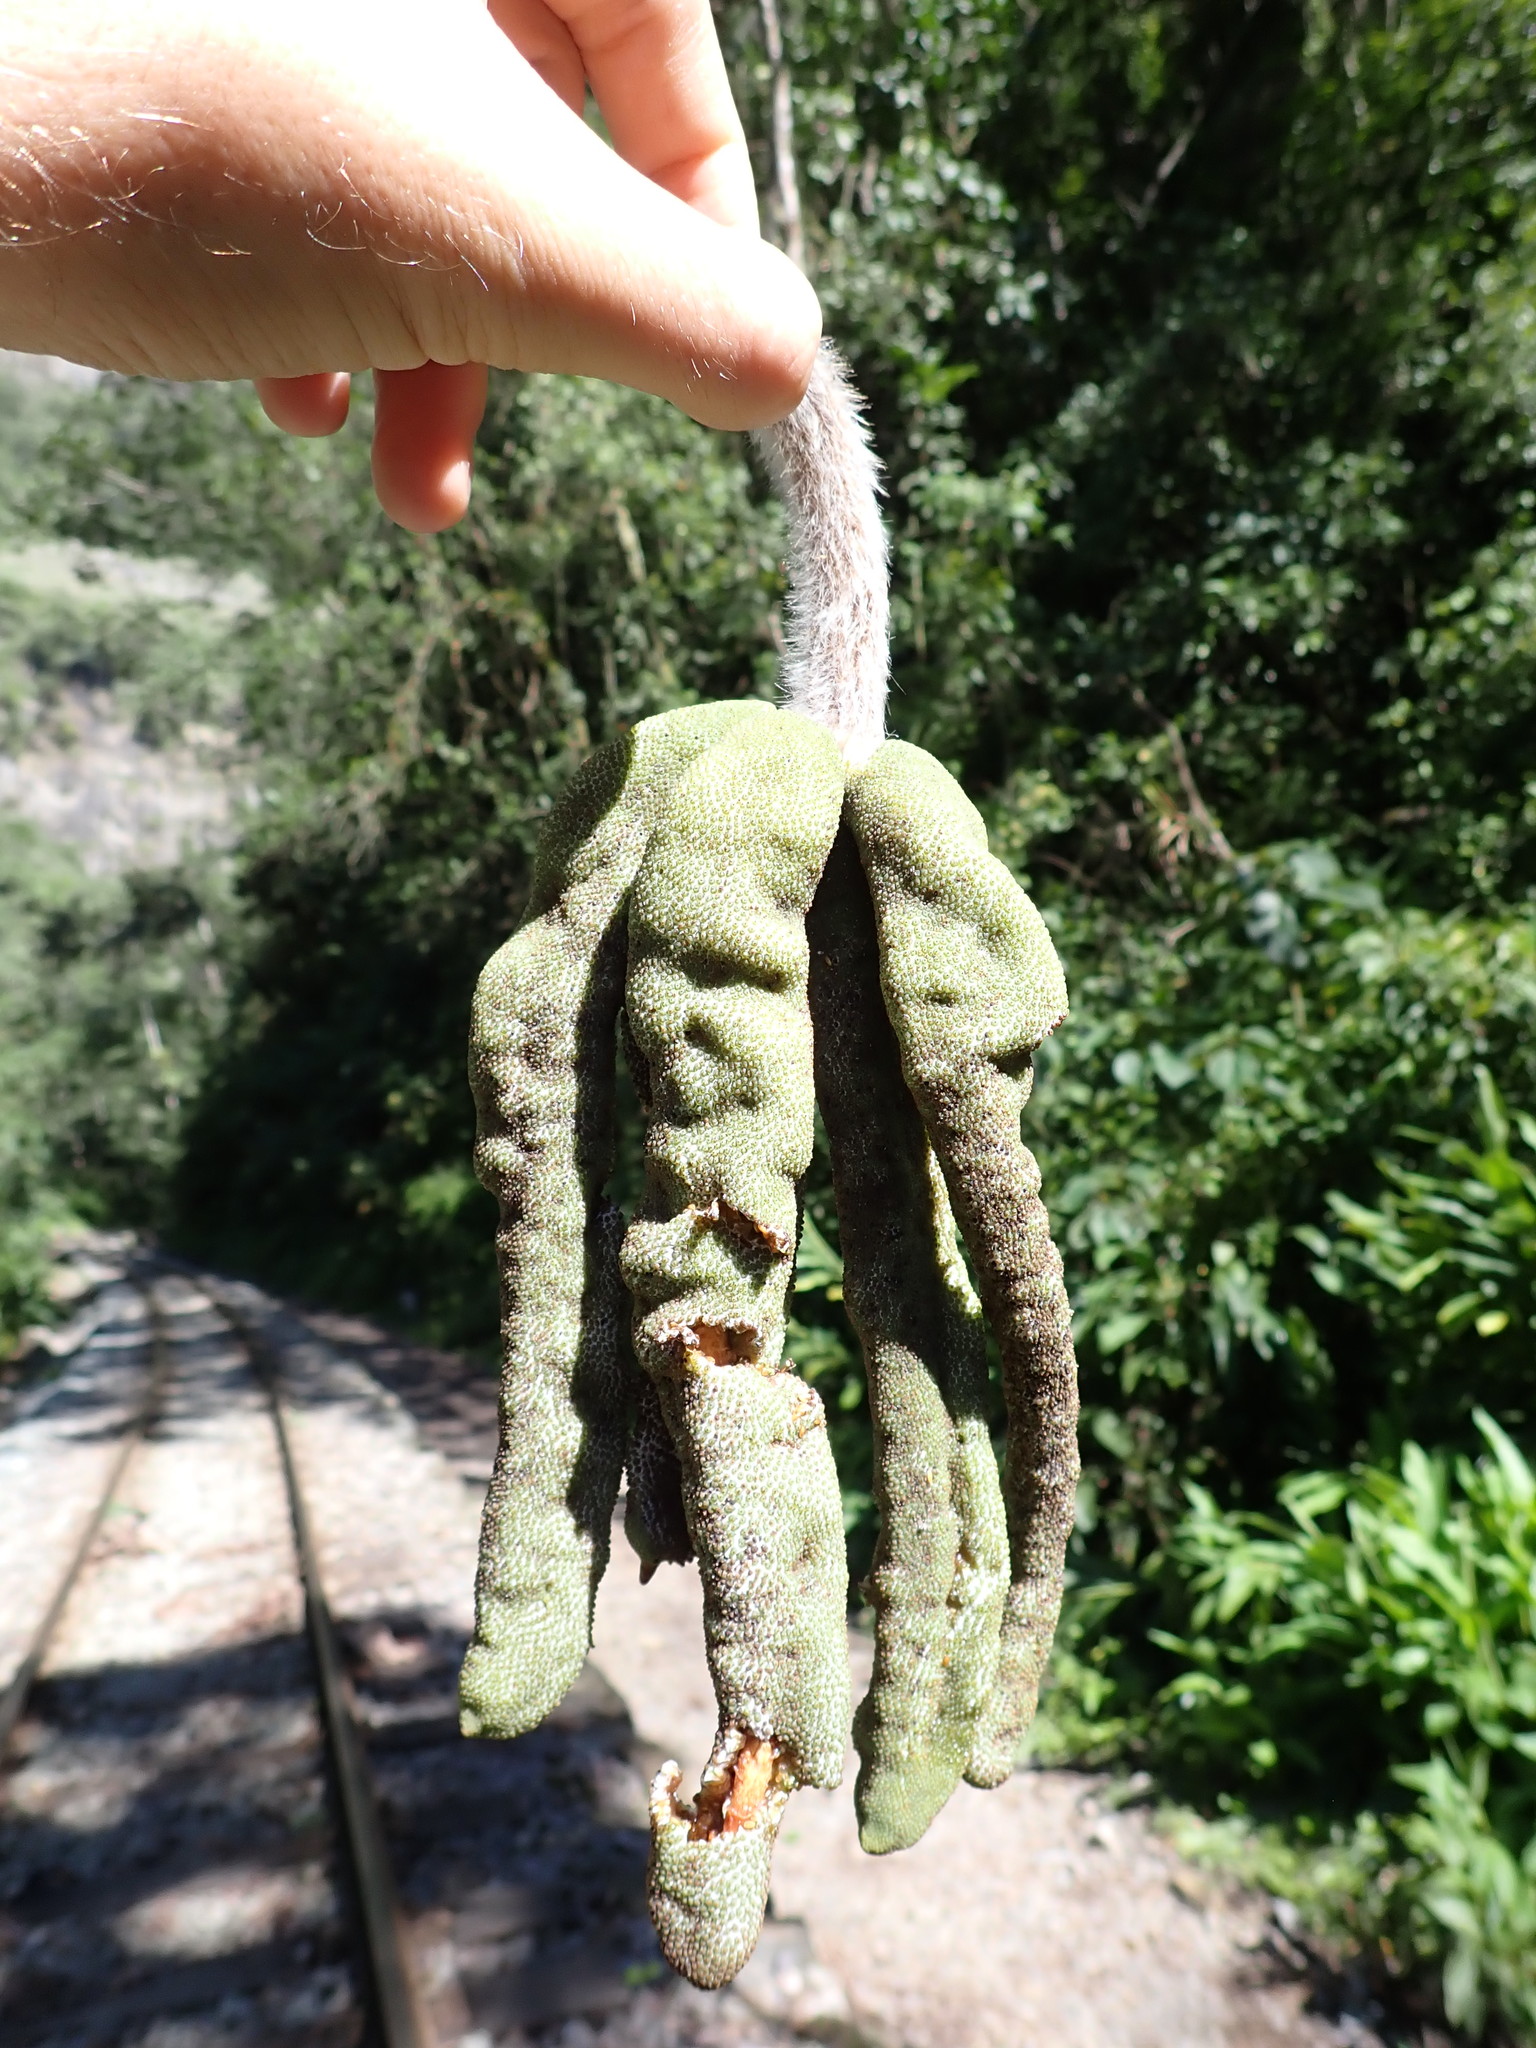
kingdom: Plantae
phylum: Tracheophyta
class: Magnoliopsida
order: Rosales
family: Urticaceae
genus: Cecropia
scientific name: Cecropia tacuna
